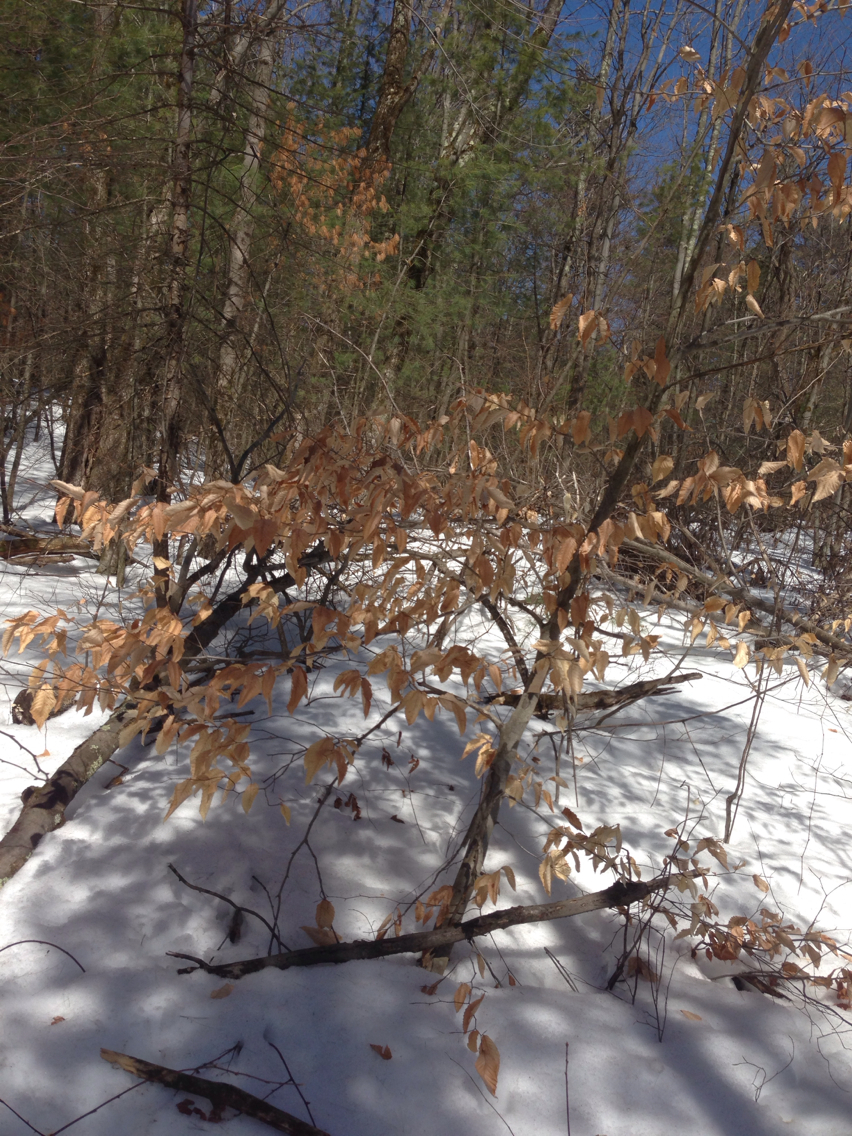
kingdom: Plantae
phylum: Tracheophyta
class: Magnoliopsida
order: Fagales
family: Fagaceae
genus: Fagus
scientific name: Fagus grandifolia
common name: American beech
